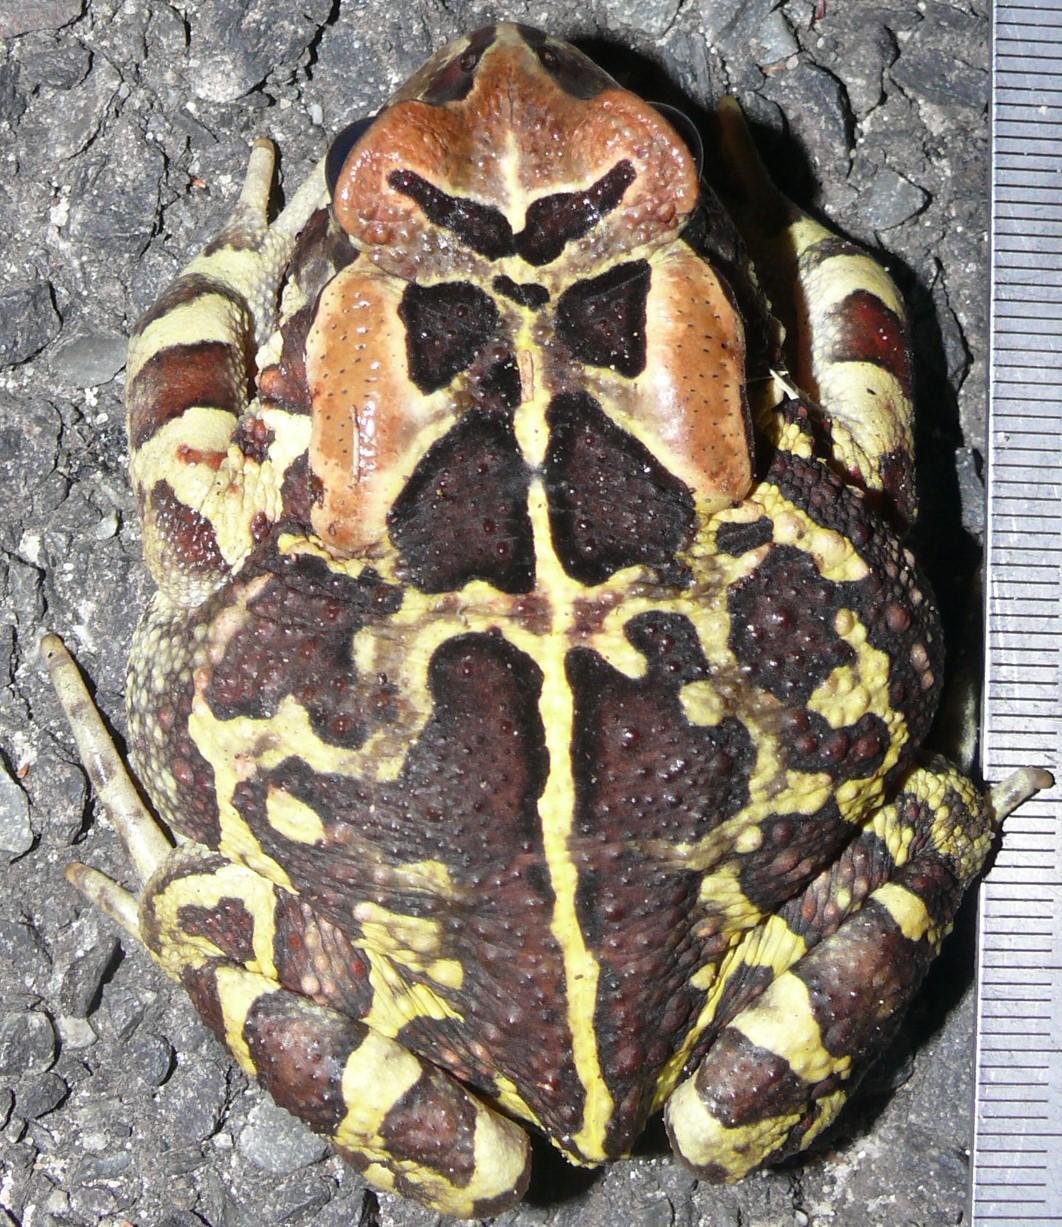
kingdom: Animalia
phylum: Chordata
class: Amphibia
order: Anura
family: Bufonidae
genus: Sclerophrys
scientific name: Sclerophrys pantherina
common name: Panther toad
